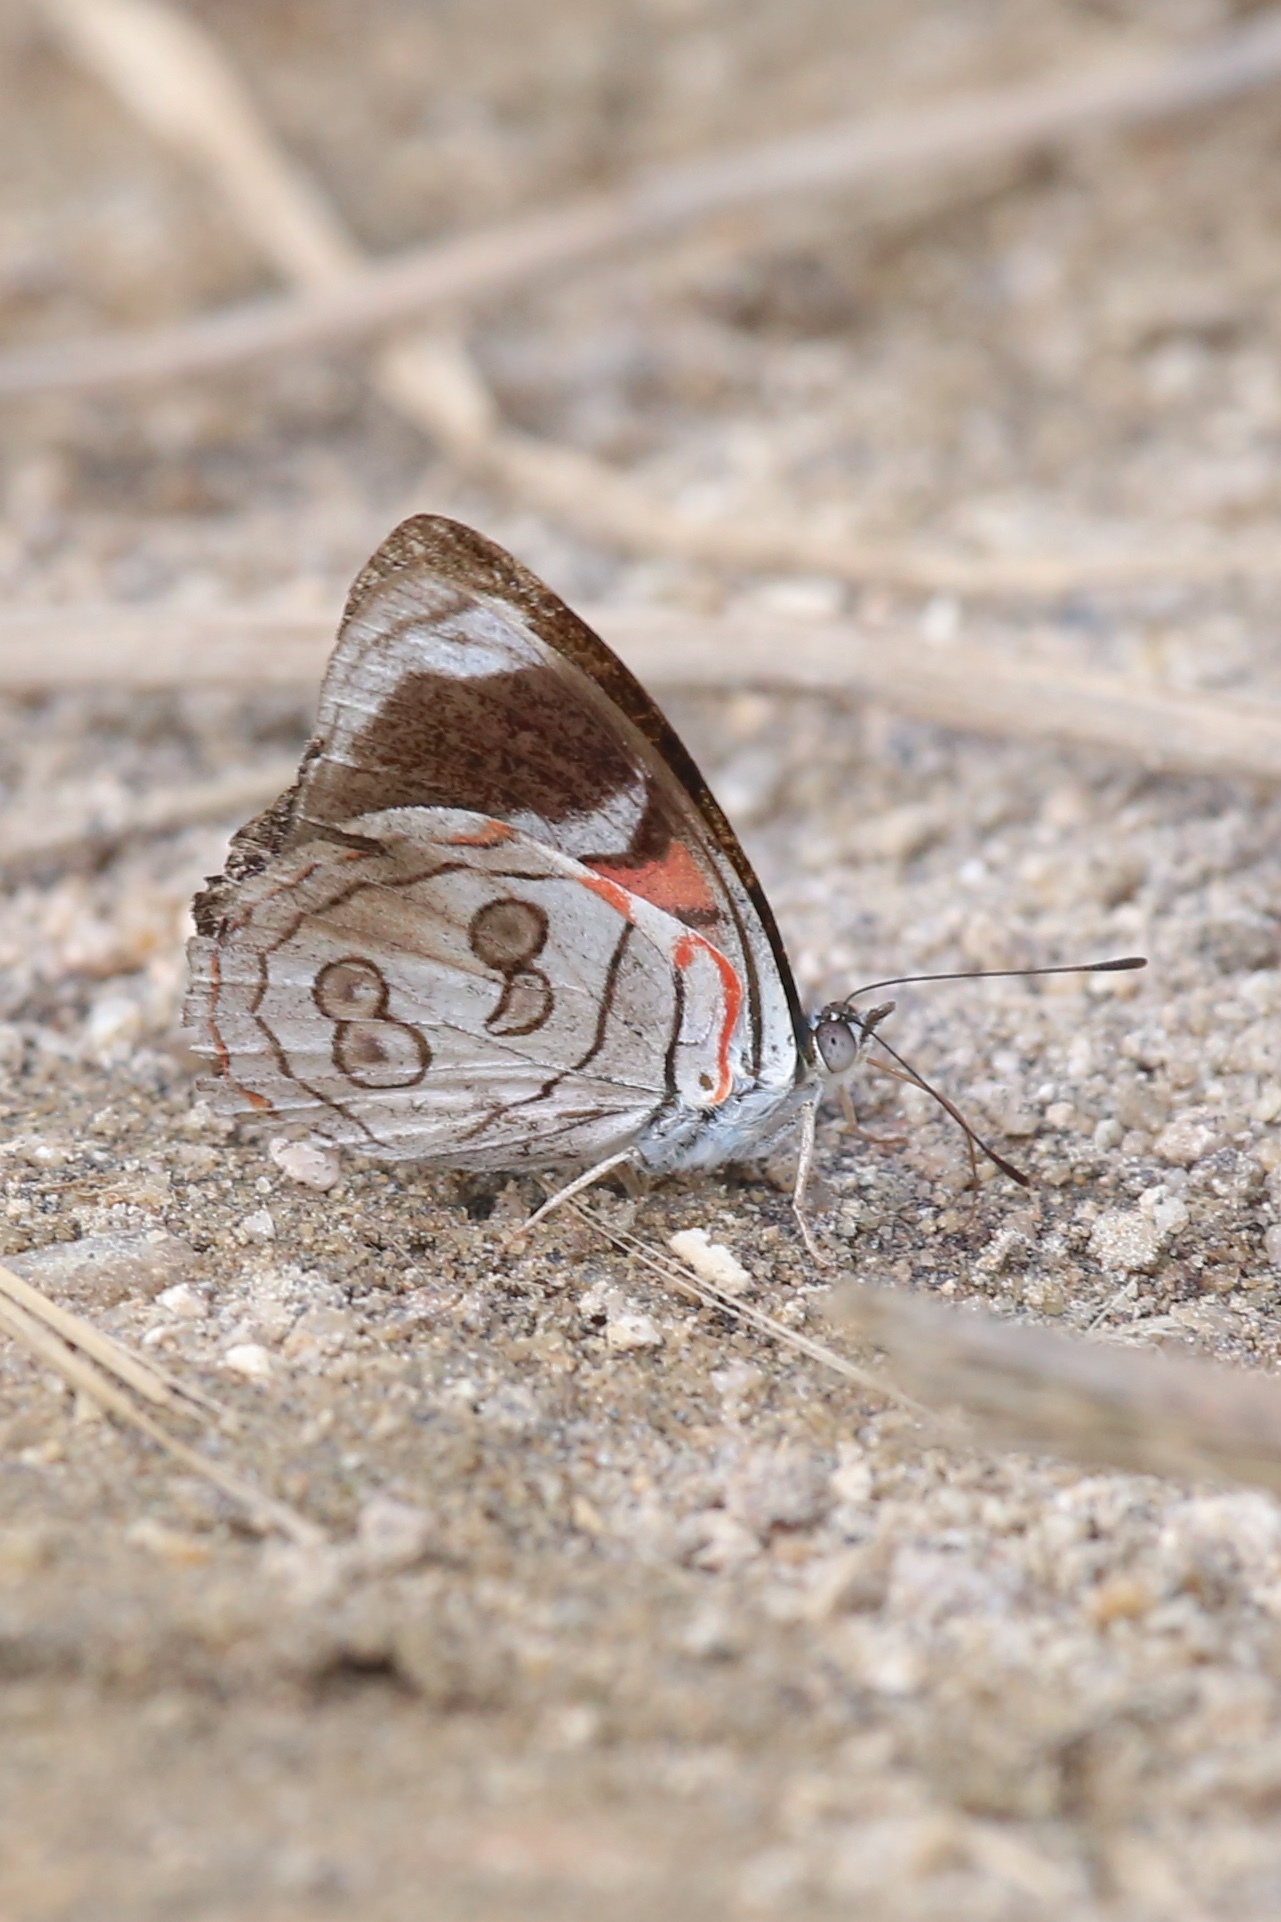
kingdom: Animalia
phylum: Arthropoda
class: Insecta
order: Lepidoptera
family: Nymphalidae
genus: Diaethria
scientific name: Diaethria
